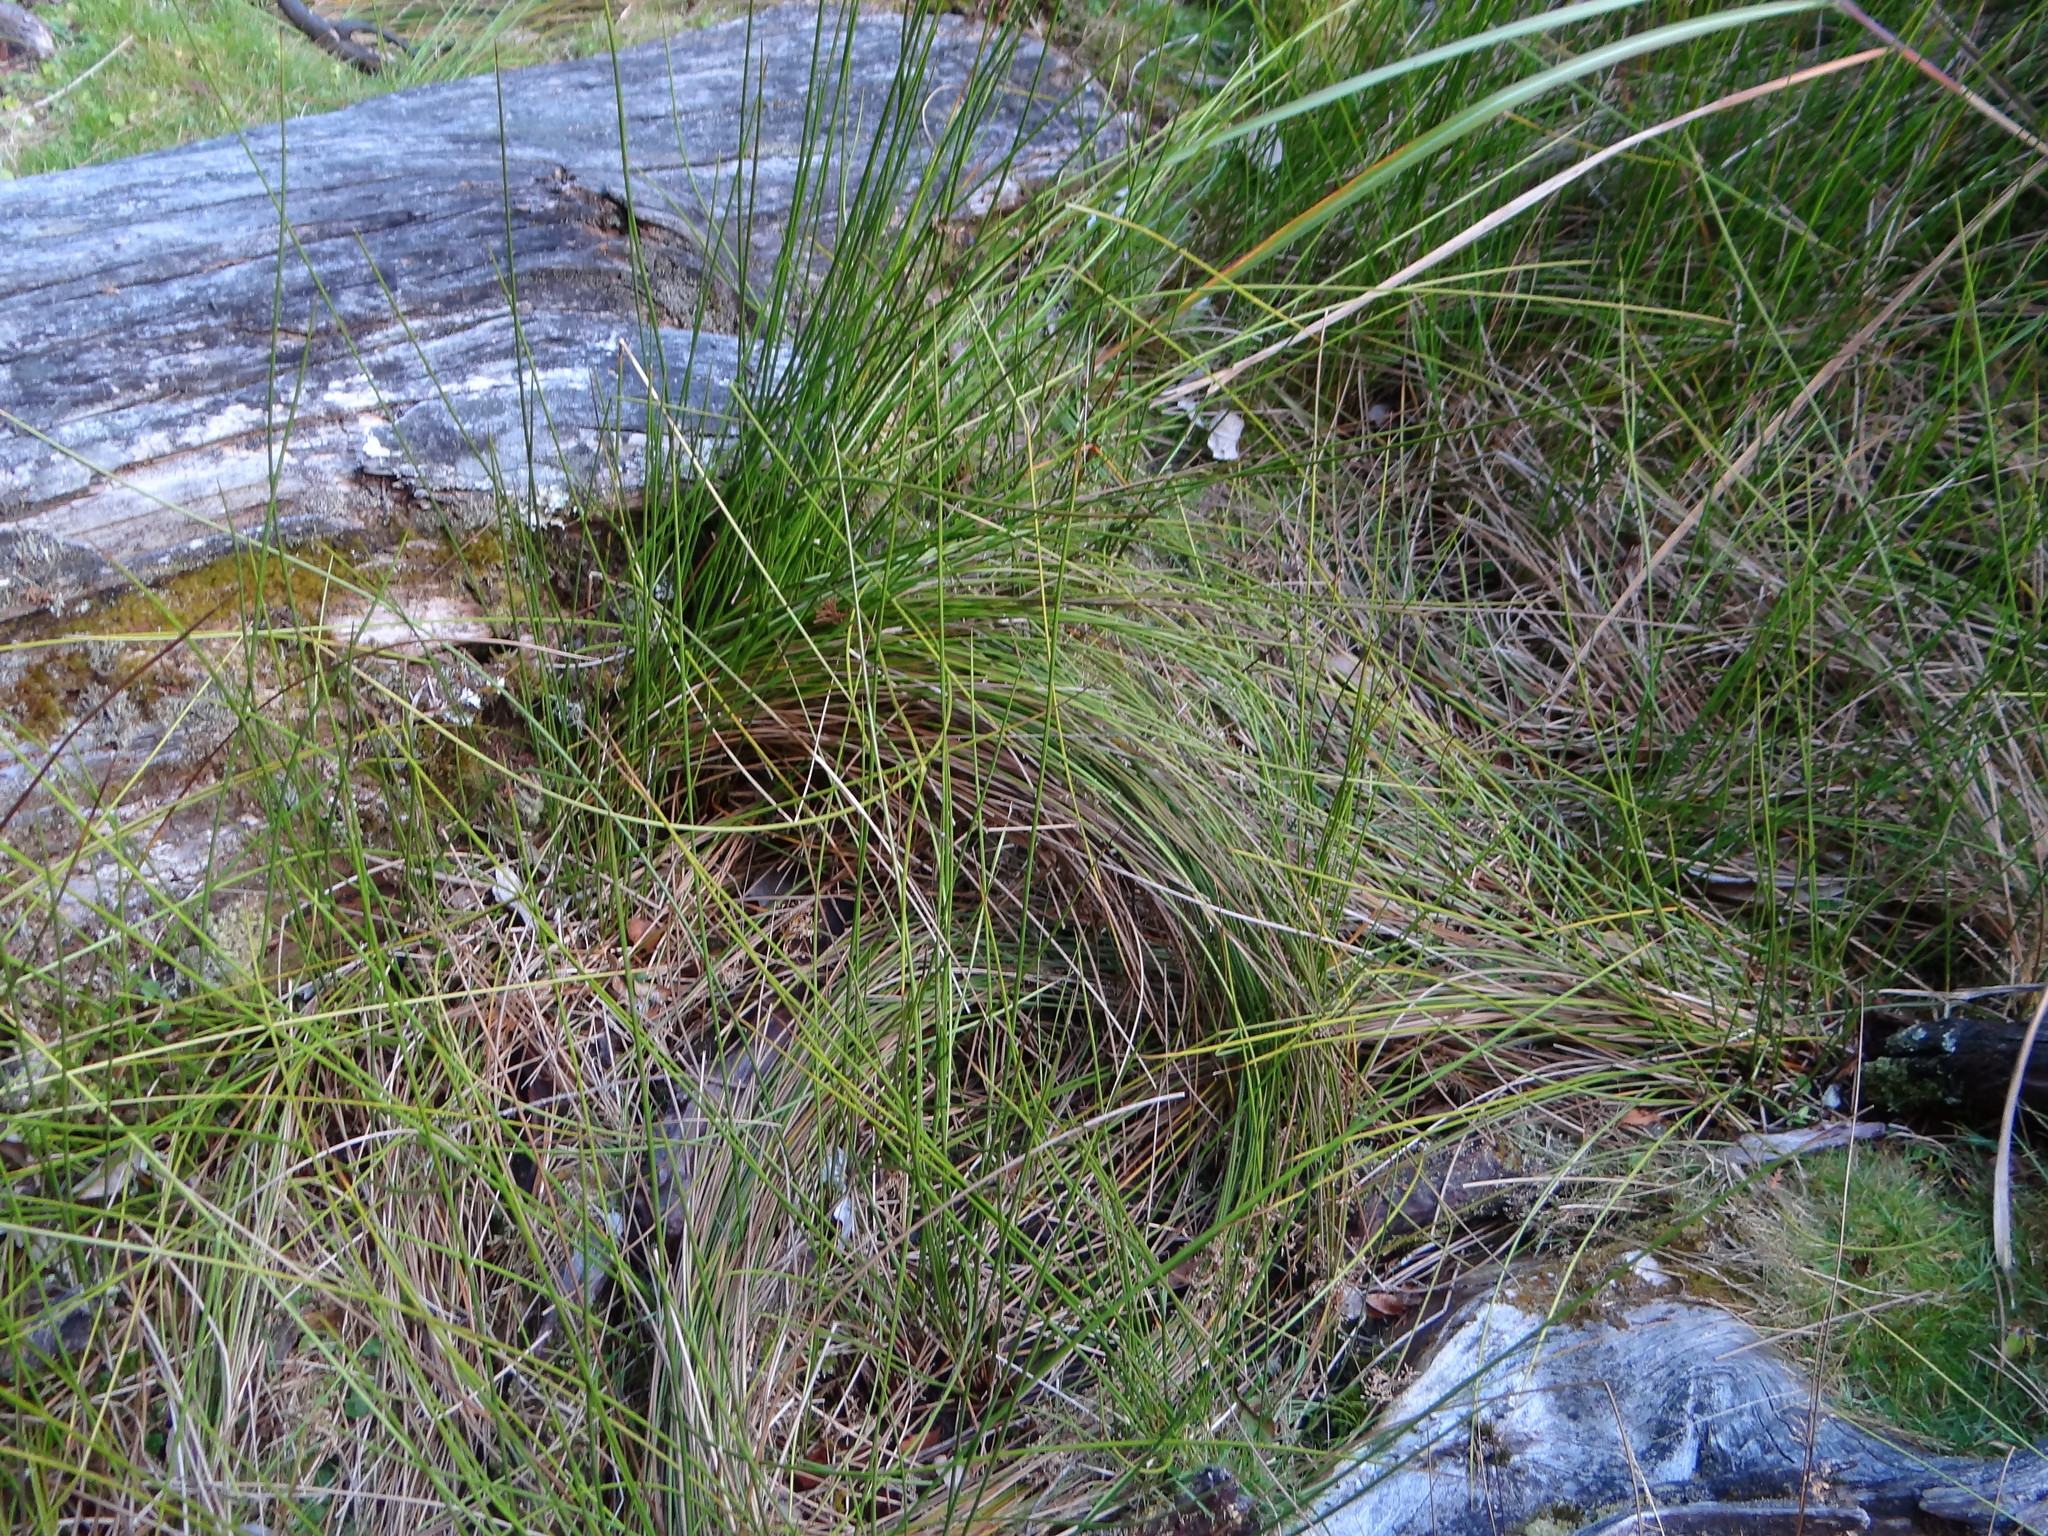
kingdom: Plantae
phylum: Tracheophyta
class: Liliopsida
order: Poales
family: Juncaceae
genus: Juncus
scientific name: Juncus effusus
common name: Soft rush
